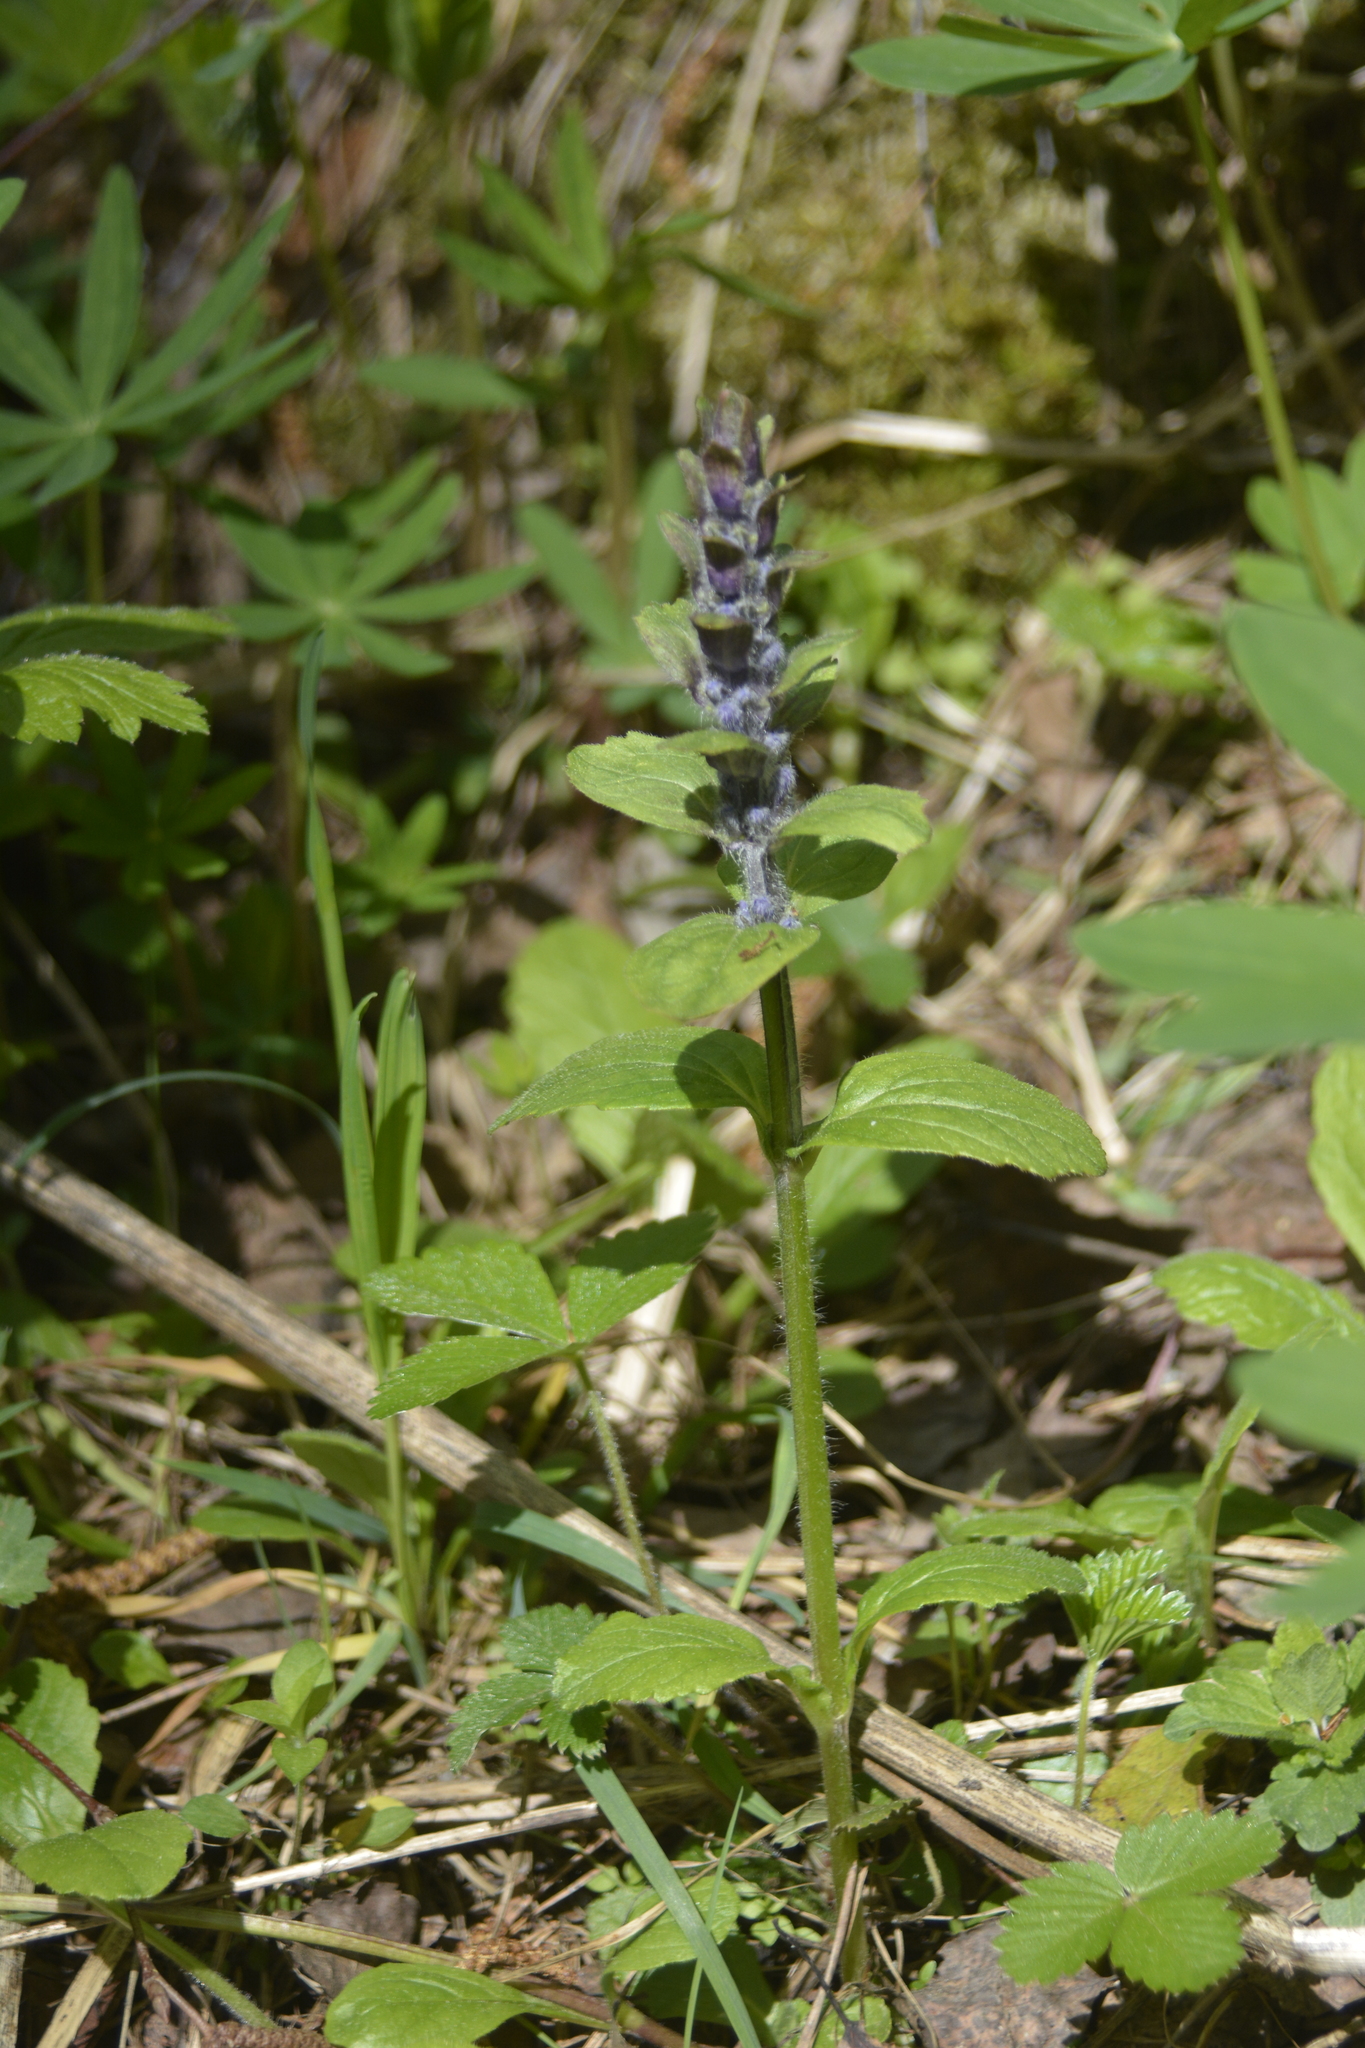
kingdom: Plantae
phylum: Tracheophyta
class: Magnoliopsida
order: Lamiales
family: Lamiaceae
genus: Ajuga
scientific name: Ajuga reptans
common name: Bugle
